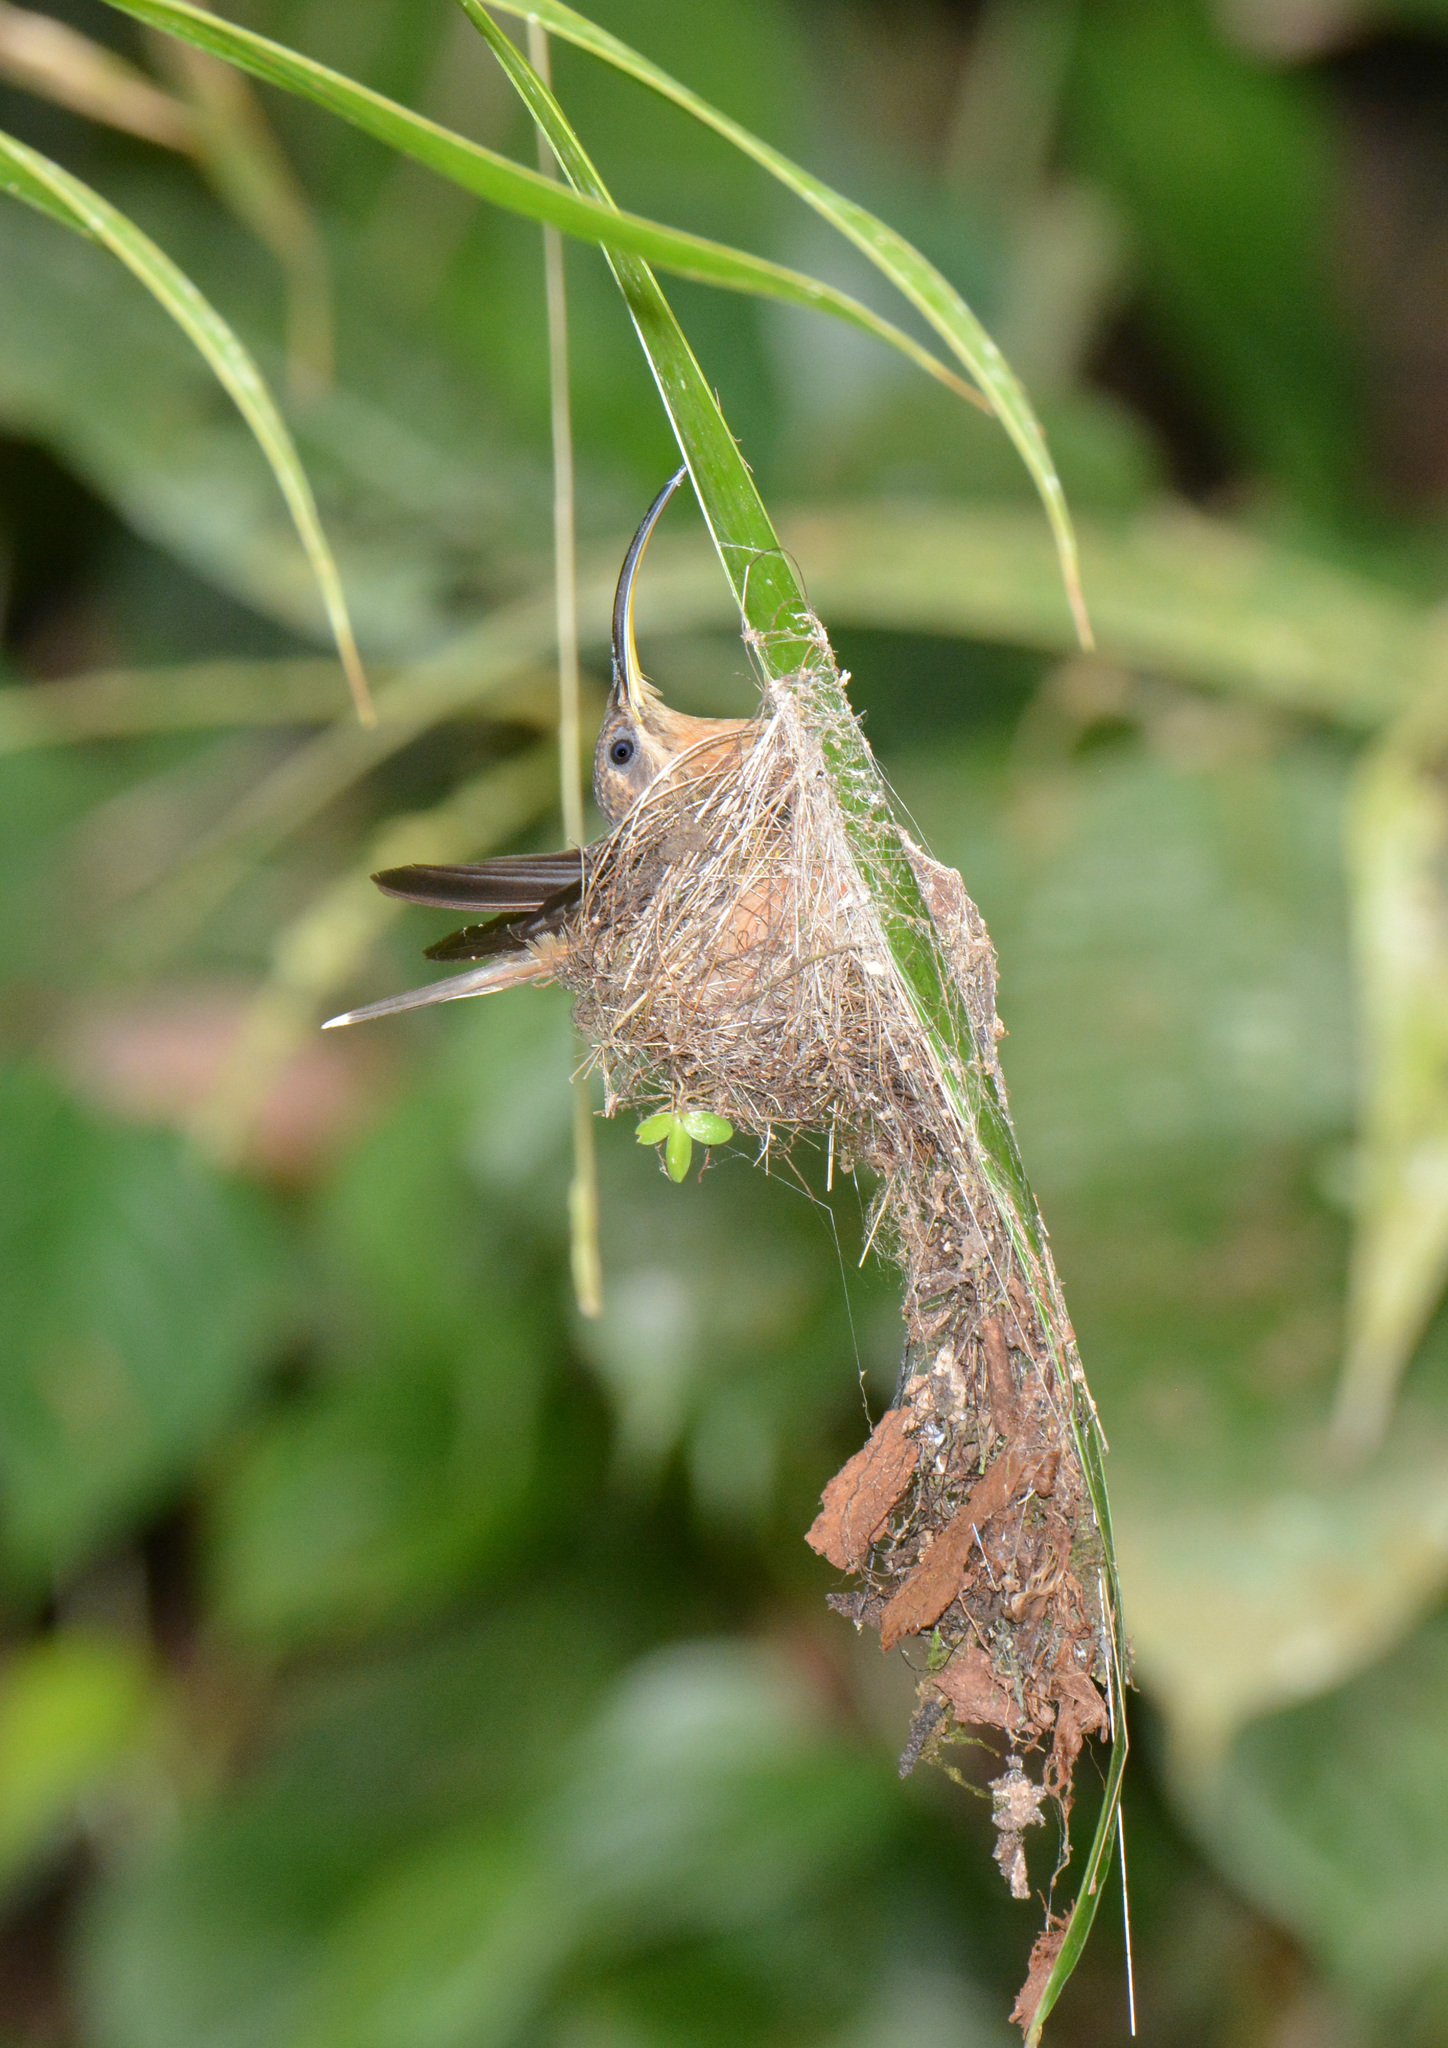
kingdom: Animalia
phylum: Chordata
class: Aves
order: Apodiformes
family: Trochilidae
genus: Glaucis
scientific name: Glaucis hirsutus
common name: Rufous-breasted hermit
